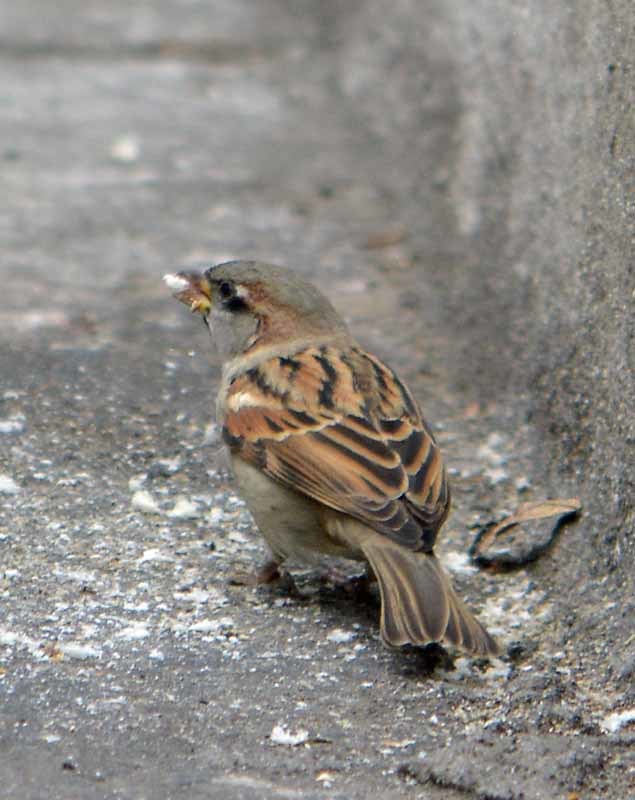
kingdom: Animalia
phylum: Chordata
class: Aves
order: Passeriformes
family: Passeridae
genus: Passer
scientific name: Passer domesticus
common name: House sparrow
